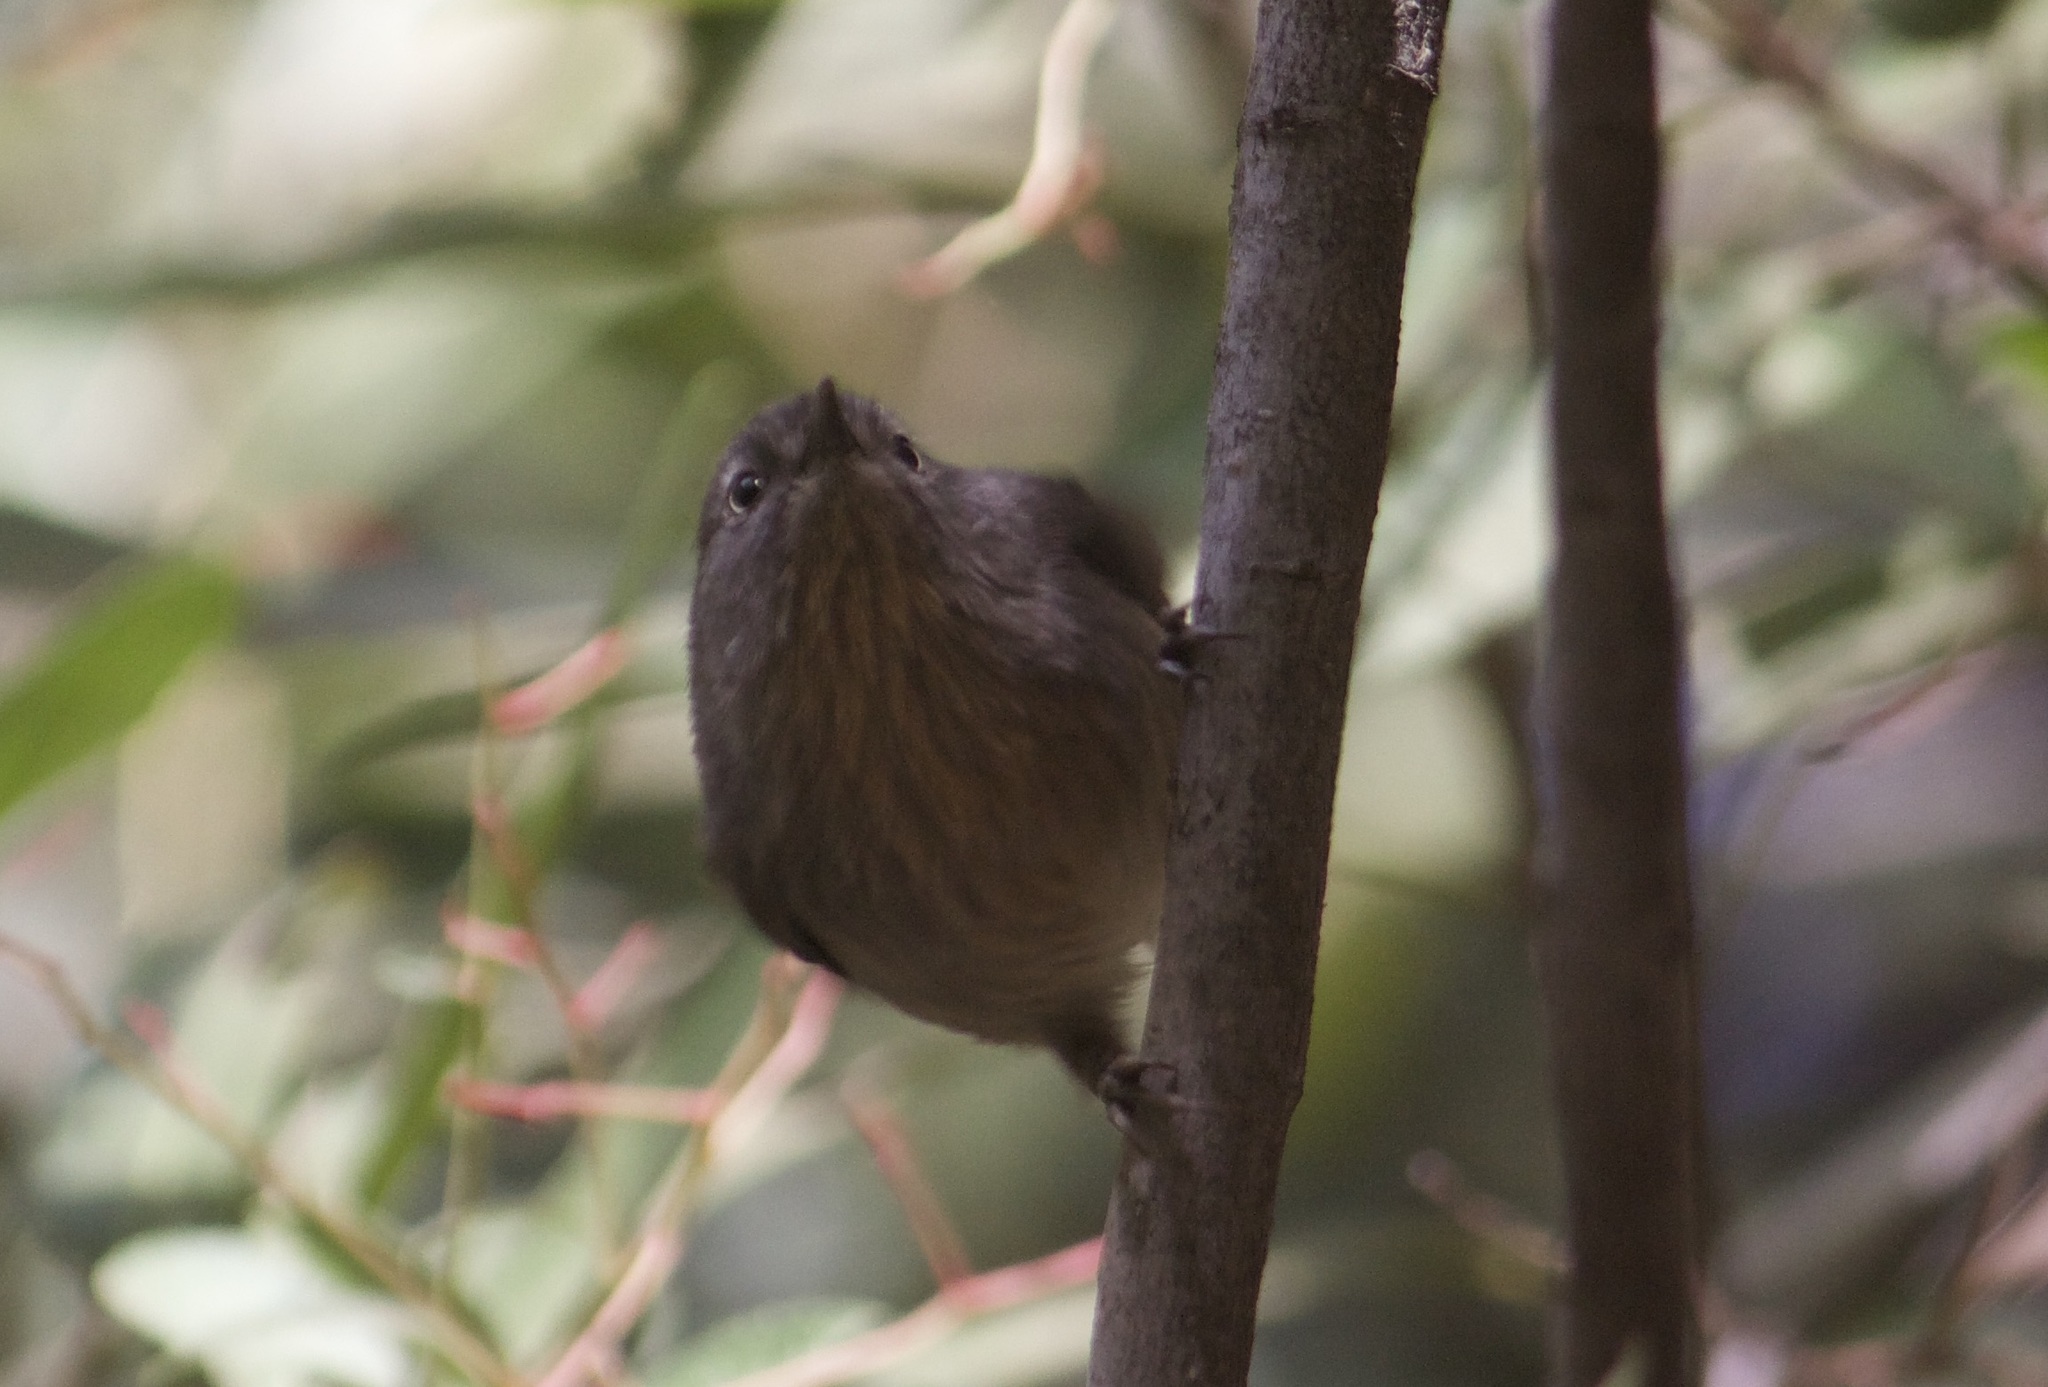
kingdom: Animalia
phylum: Chordata
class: Aves
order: Passeriformes
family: Sylviidae
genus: Chamaea
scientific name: Chamaea fasciata
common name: Wrentit
